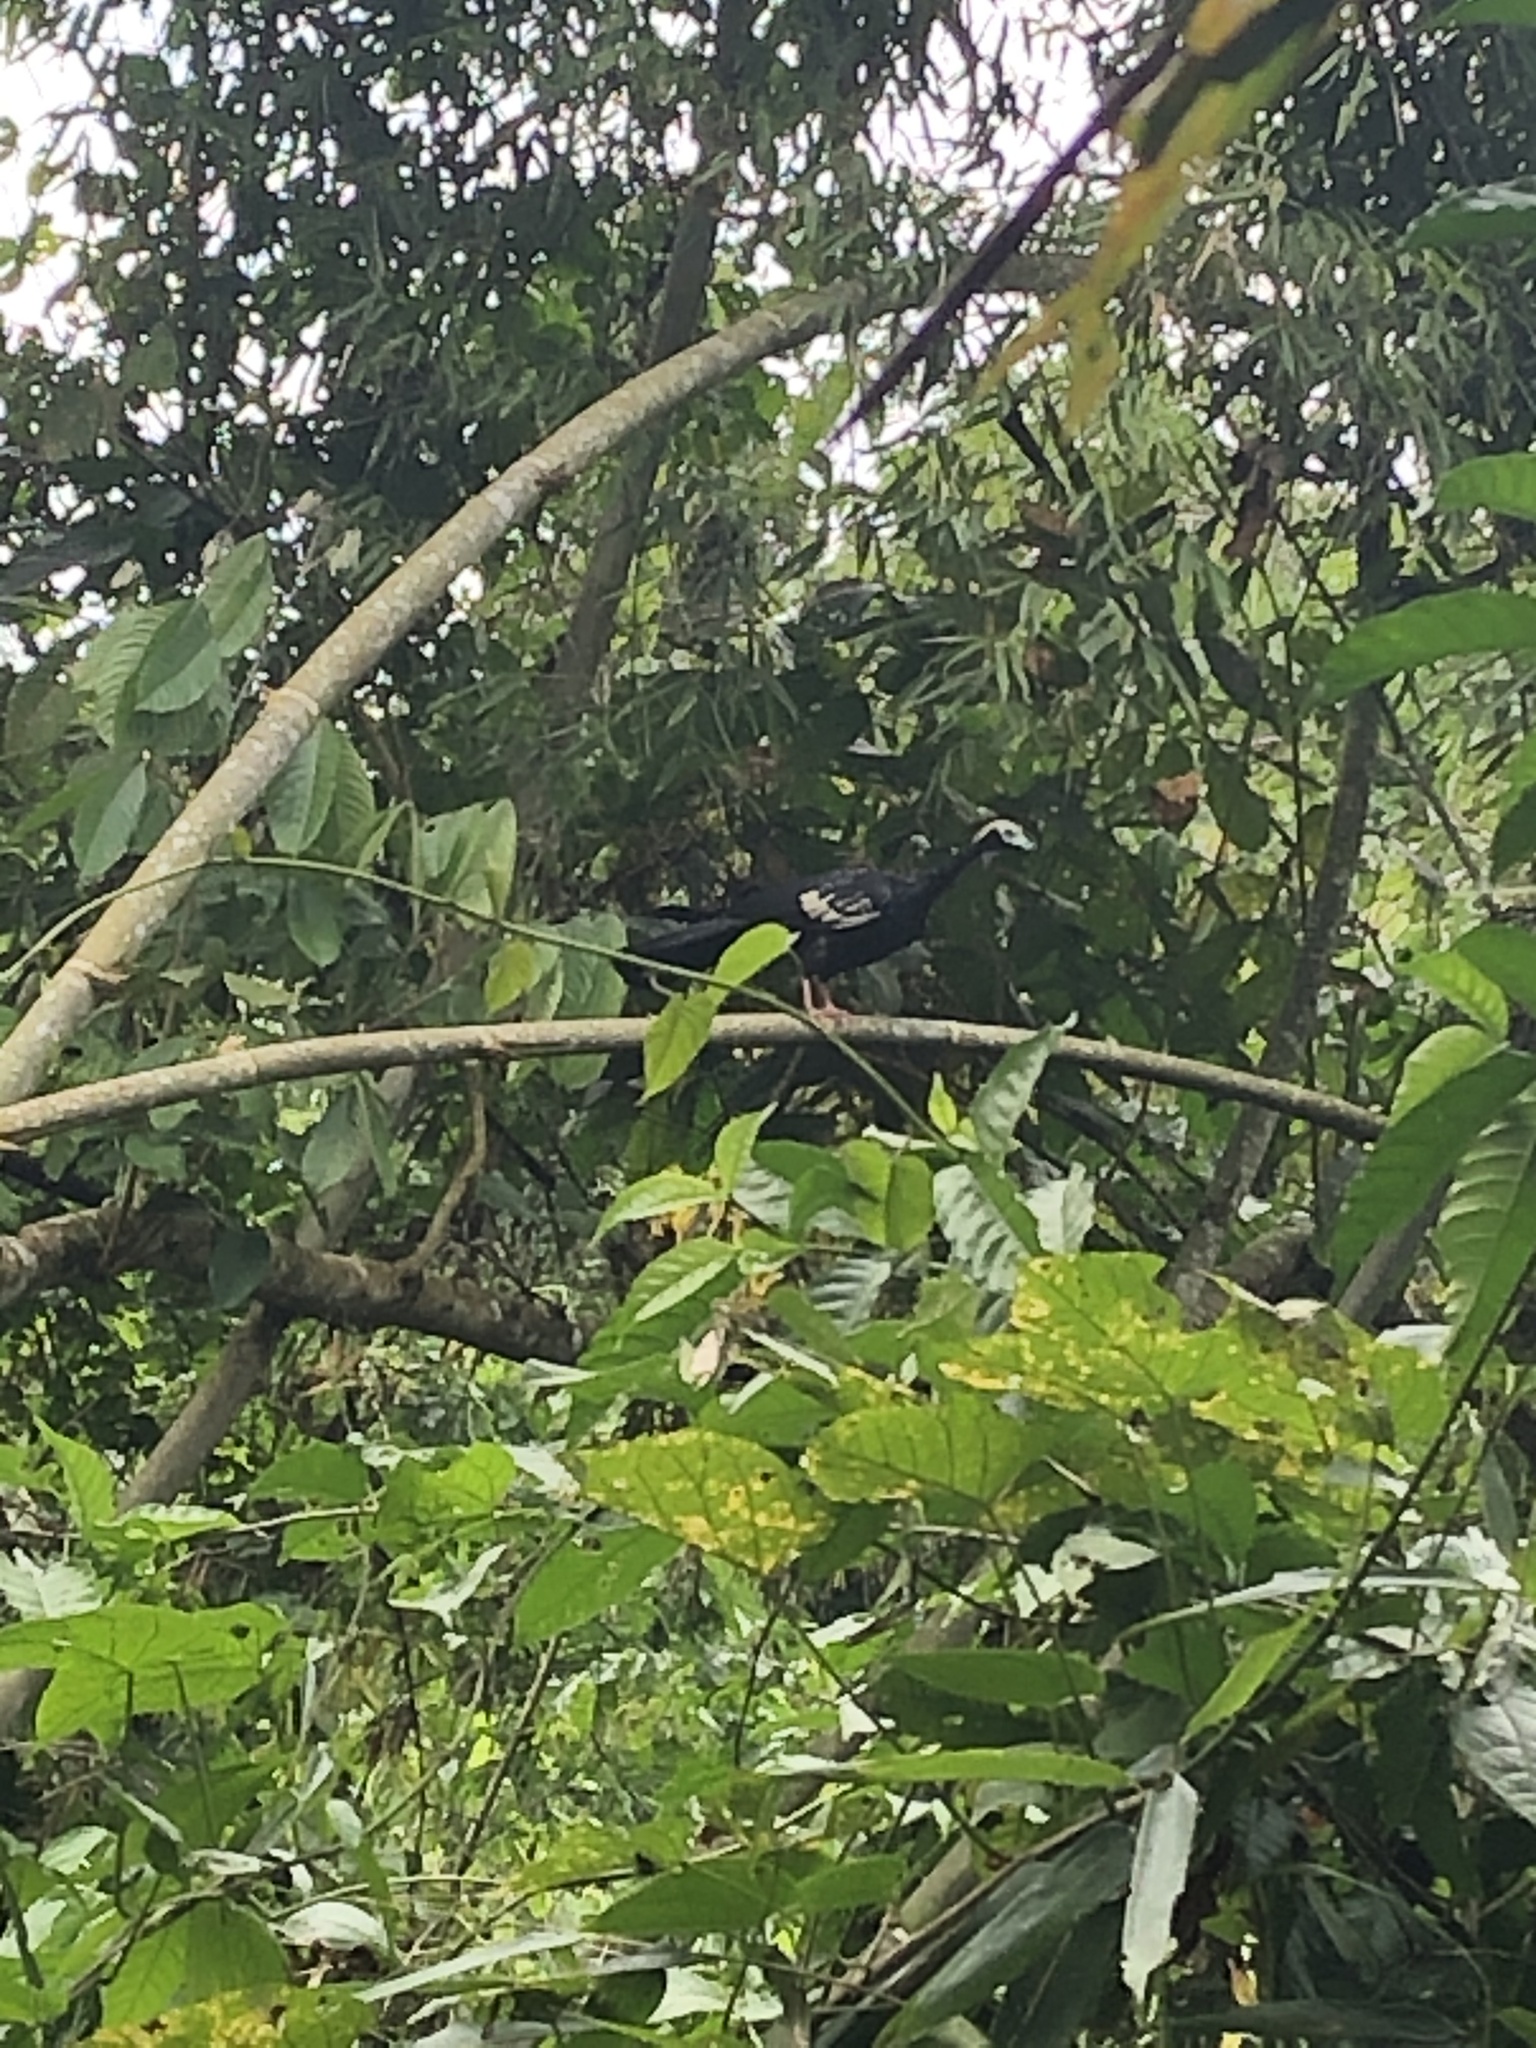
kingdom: Animalia
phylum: Chordata
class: Aves
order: Galliformes
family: Cracidae
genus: Pipile
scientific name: Pipile cumanensis
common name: Blue-throated piping-guan
